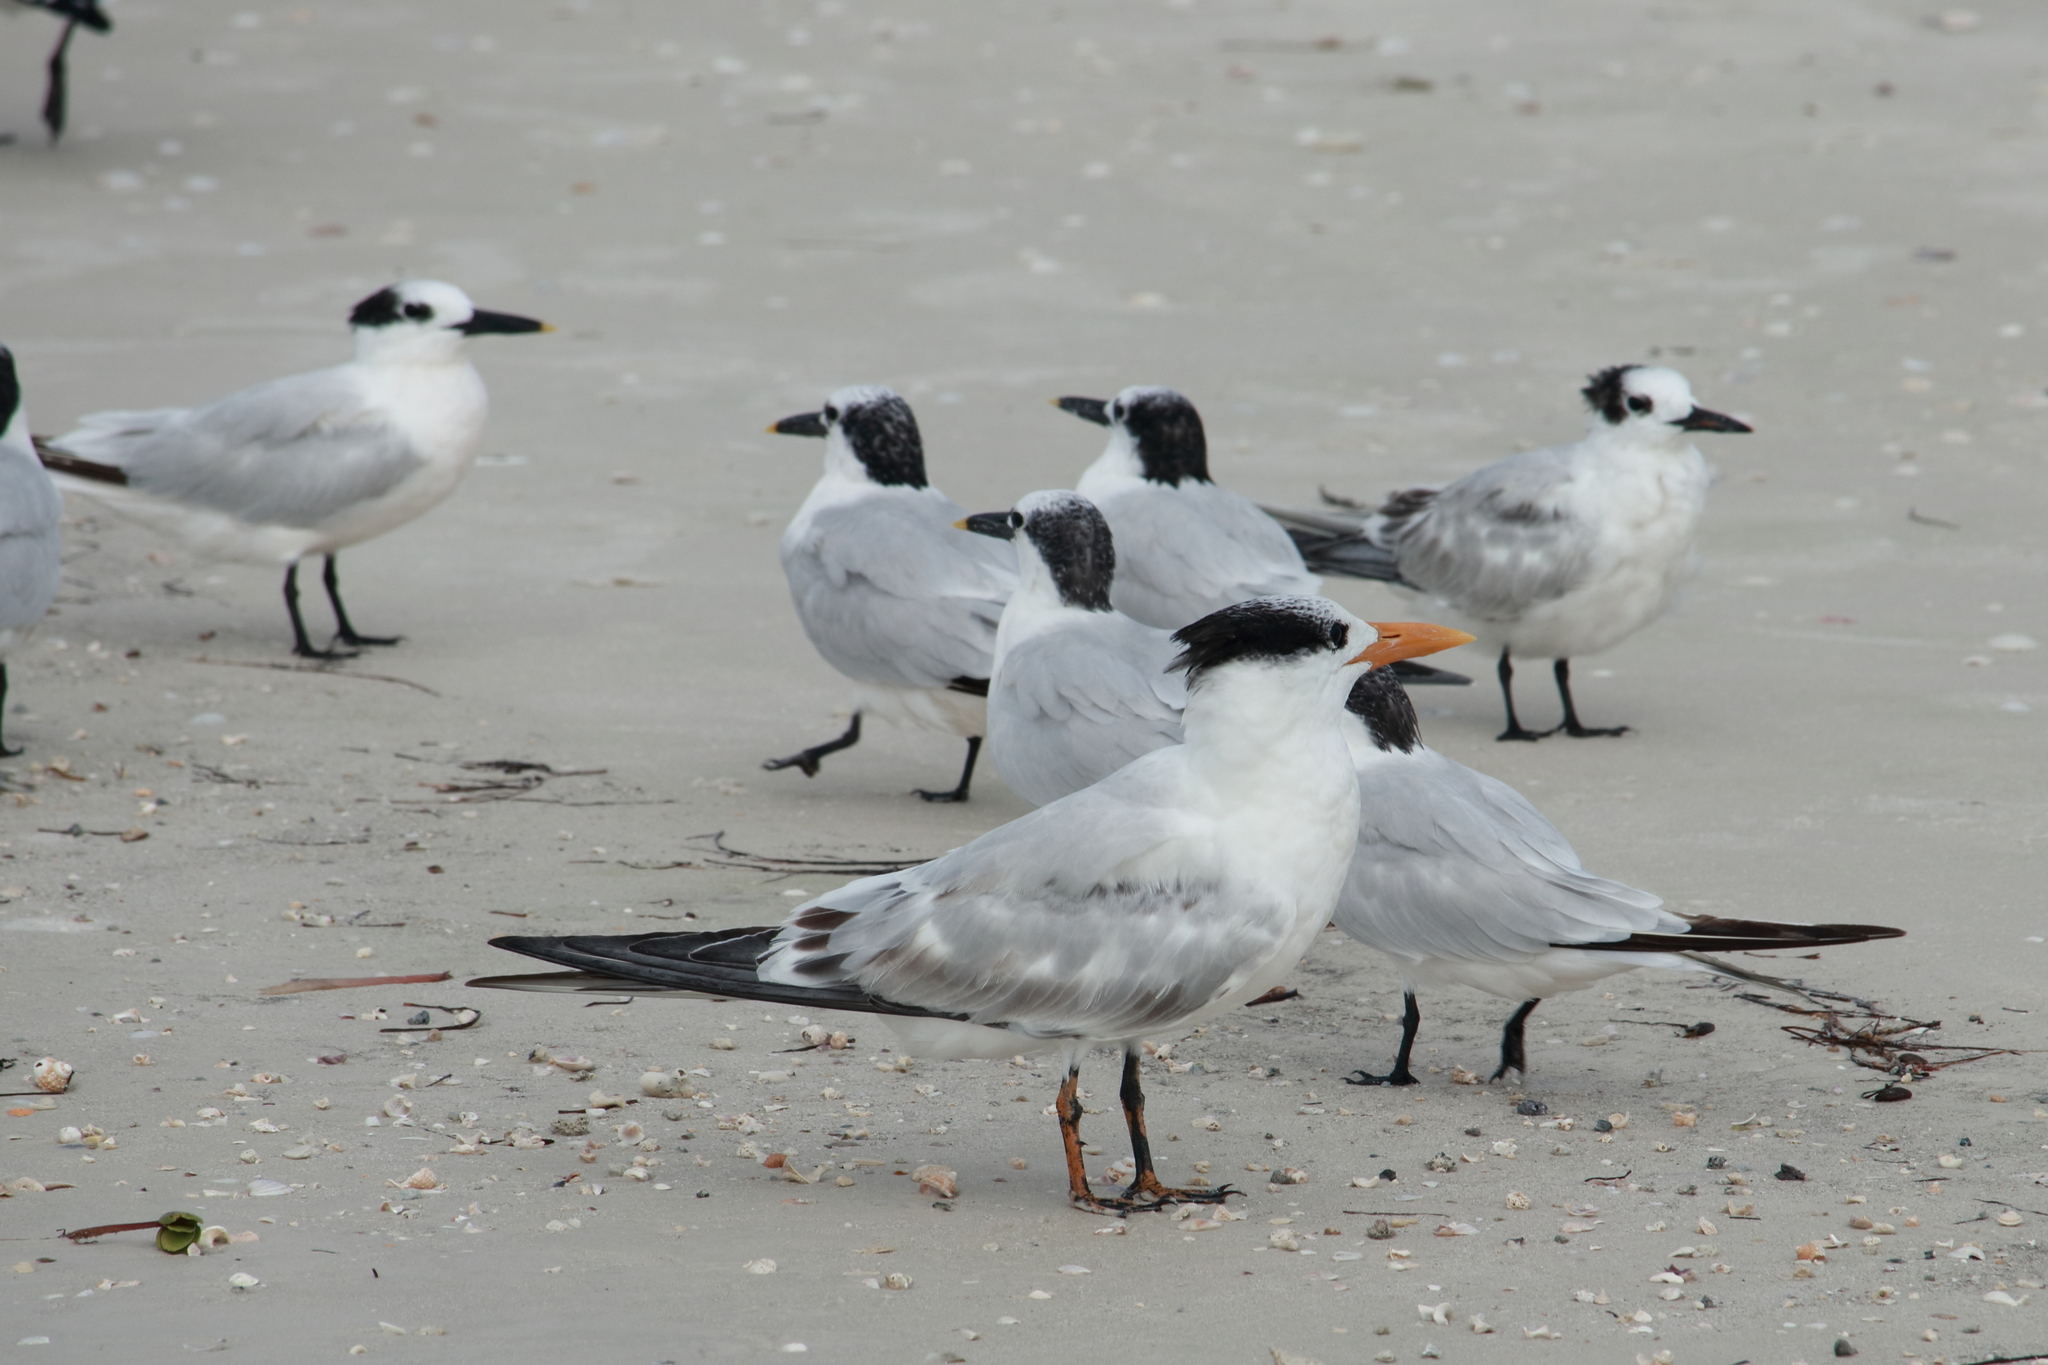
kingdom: Animalia
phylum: Chordata
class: Aves
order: Charadriiformes
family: Laridae
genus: Thalasseus
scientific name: Thalasseus maximus
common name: Royal tern
